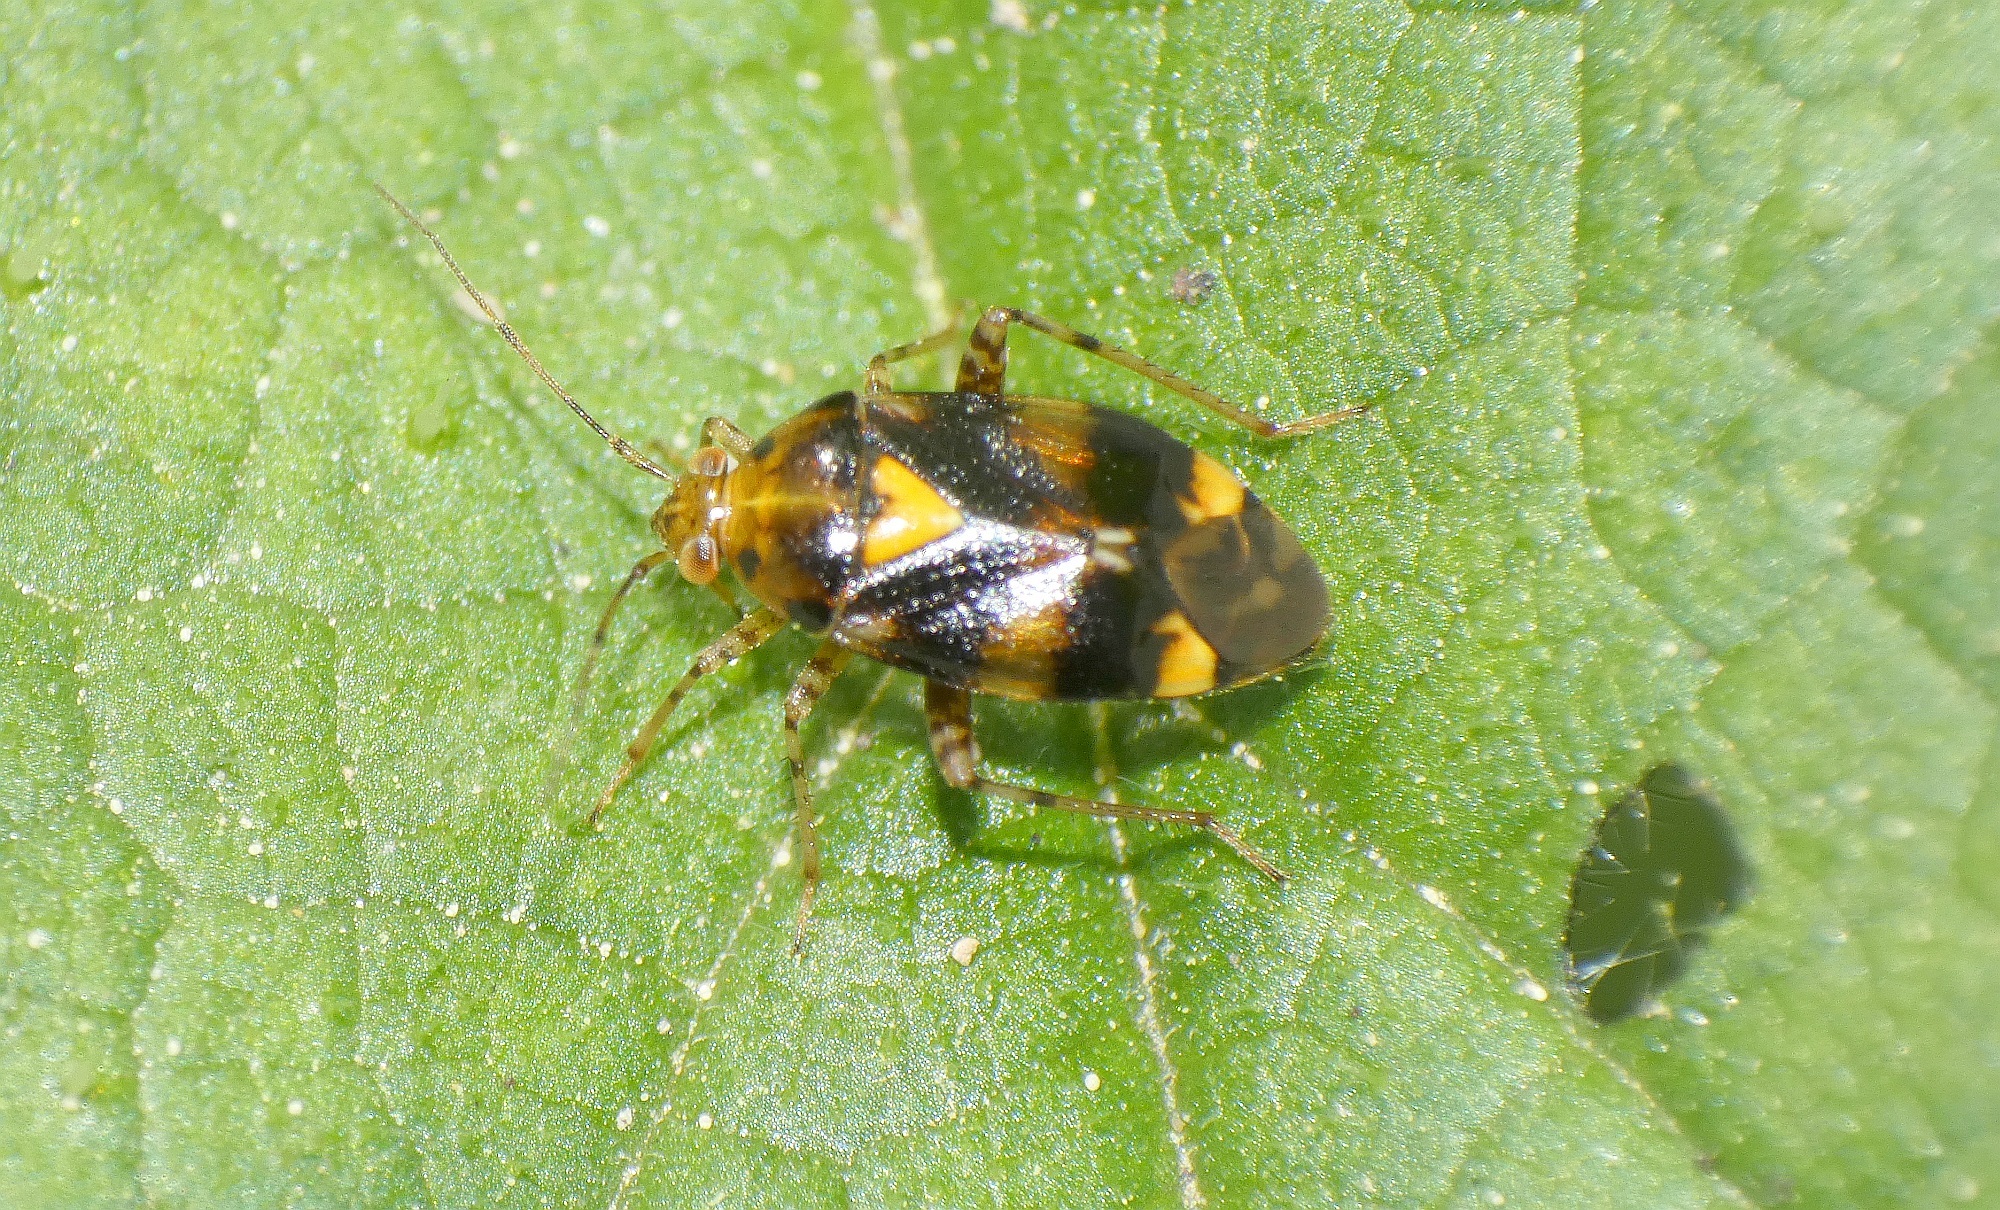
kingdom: Animalia
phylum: Arthropoda
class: Insecta
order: Hemiptera
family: Miridae
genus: Liocoris
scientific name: Liocoris tripustulatus
